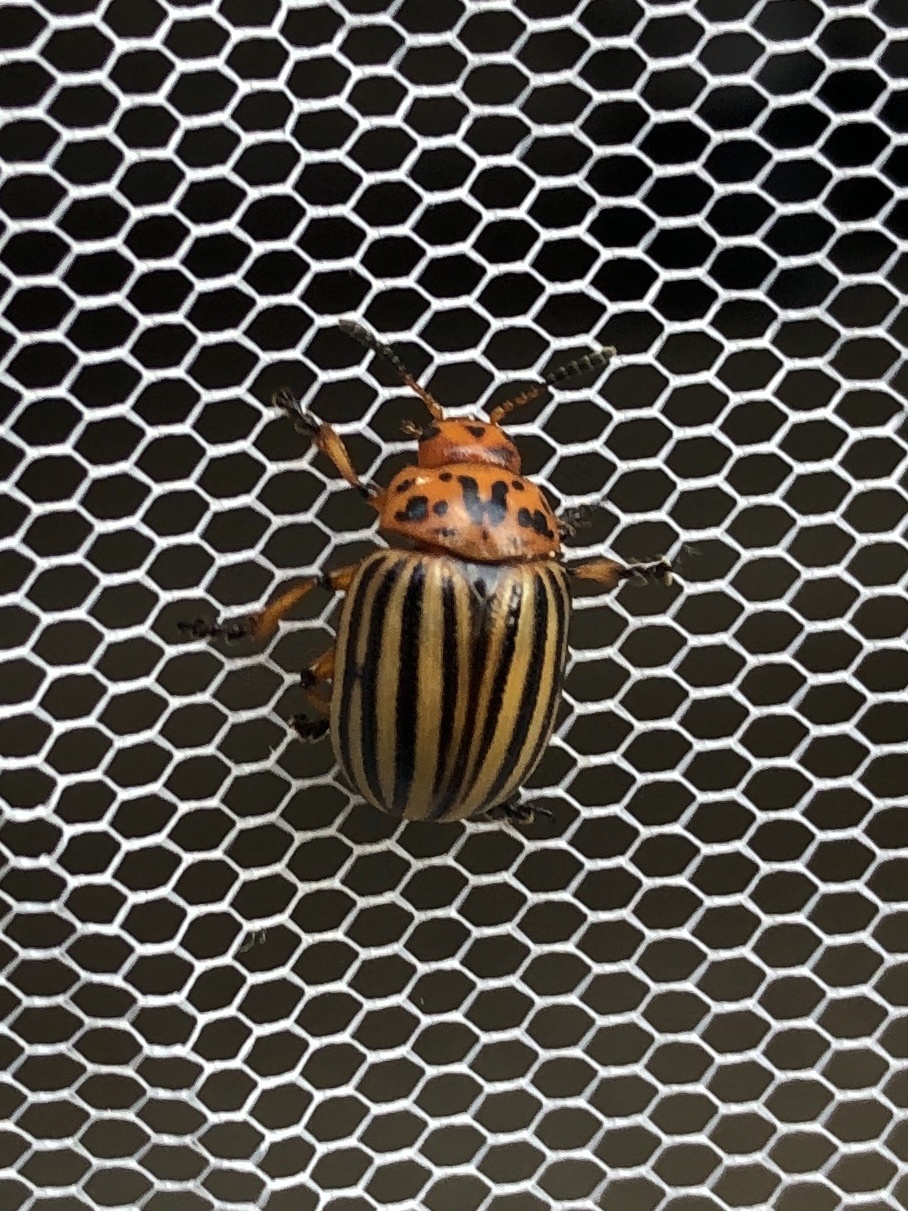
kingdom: Animalia
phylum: Arthropoda
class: Insecta
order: Coleoptera
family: Chrysomelidae
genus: Leptinotarsa
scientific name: Leptinotarsa decemlineata
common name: Colorado potato beetle
